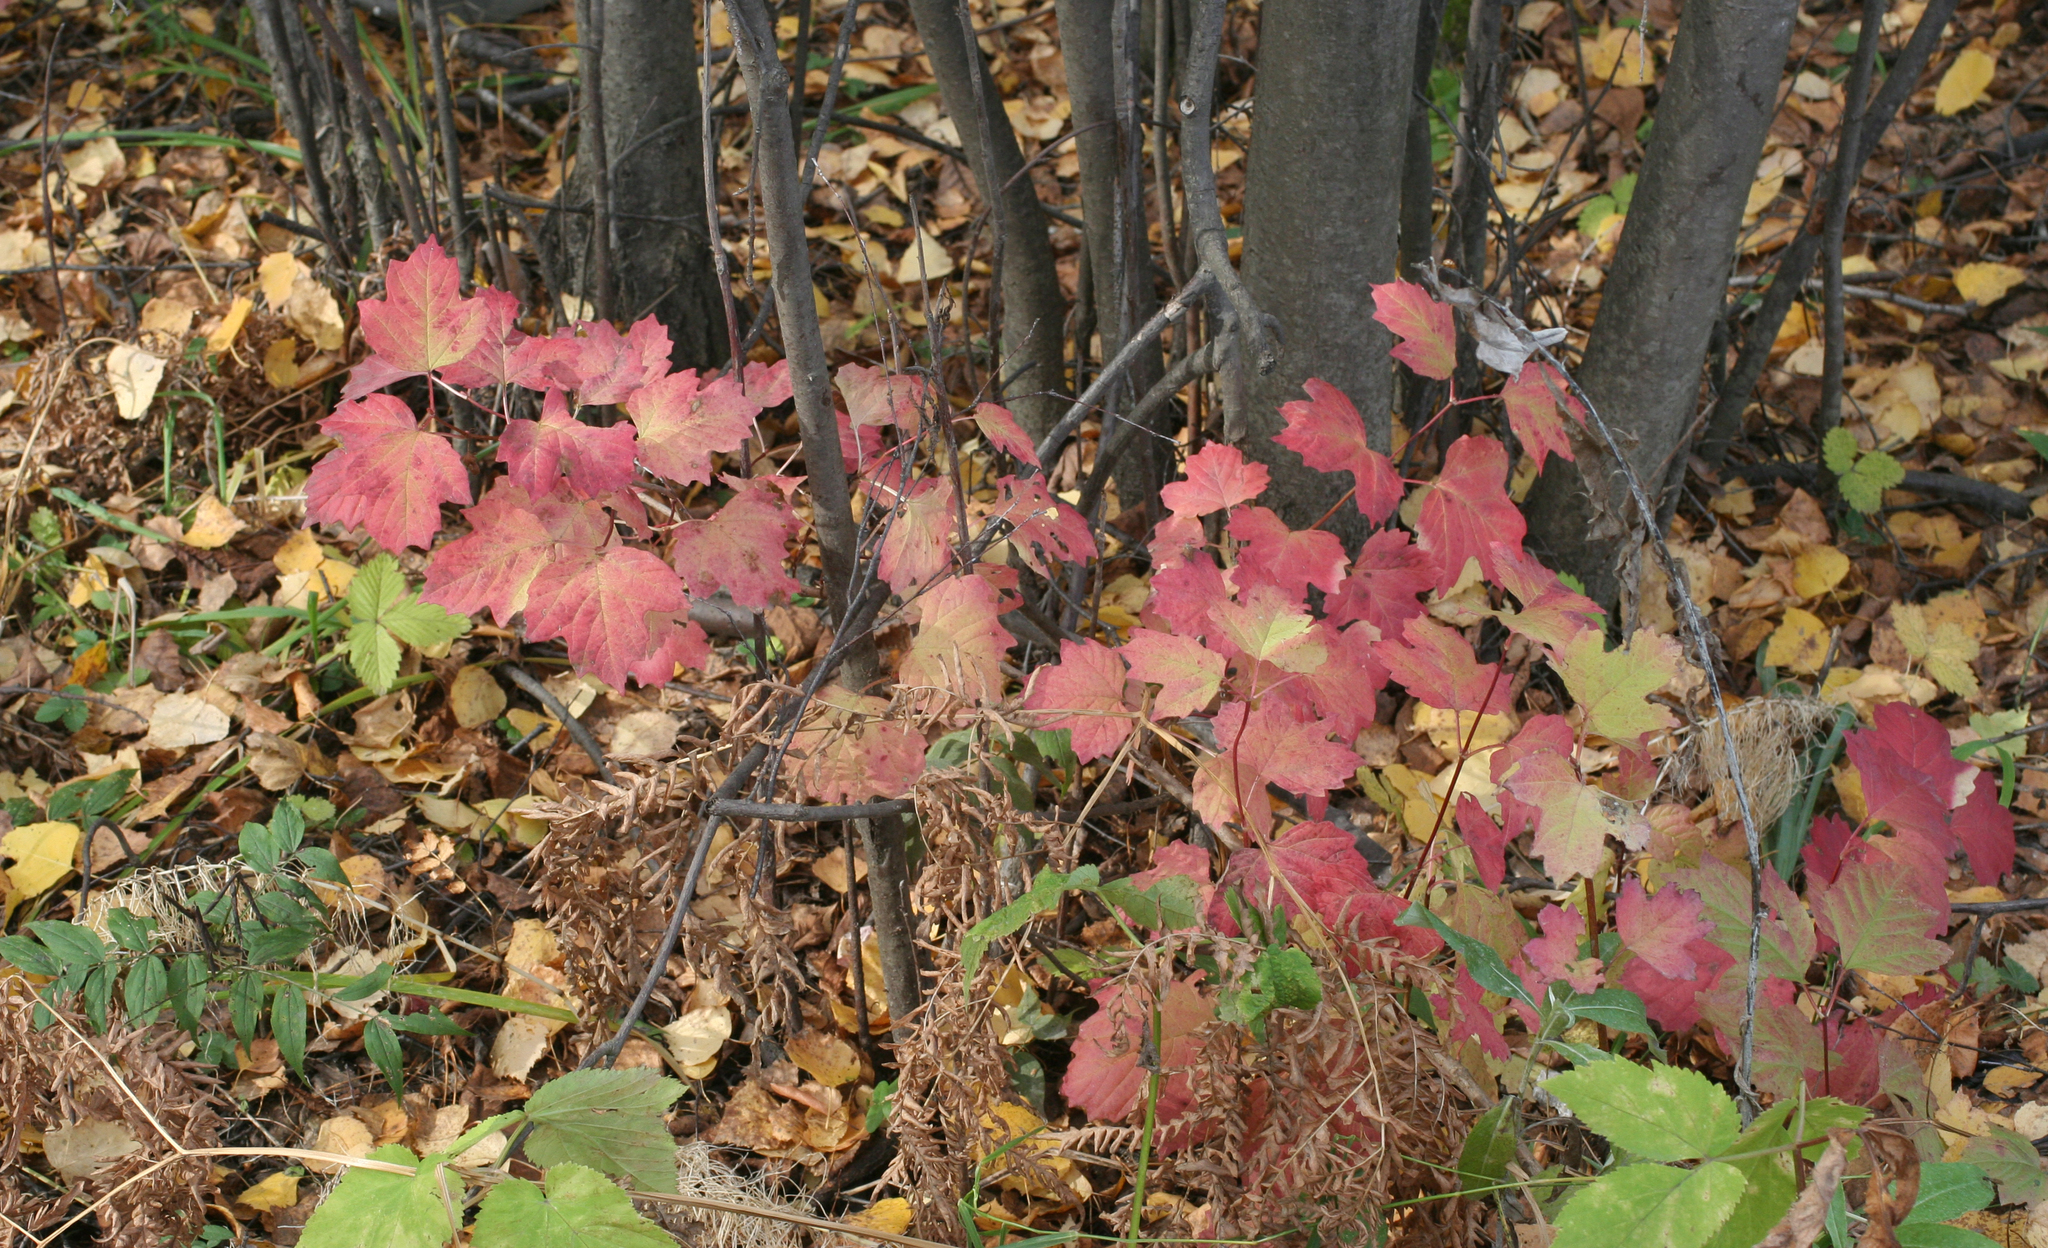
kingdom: Plantae
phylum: Tracheophyta
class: Magnoliopsida
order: Dipsacales
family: Viburnaceae
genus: Viburnum
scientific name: Viburnum opulus
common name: Guelder-rose
